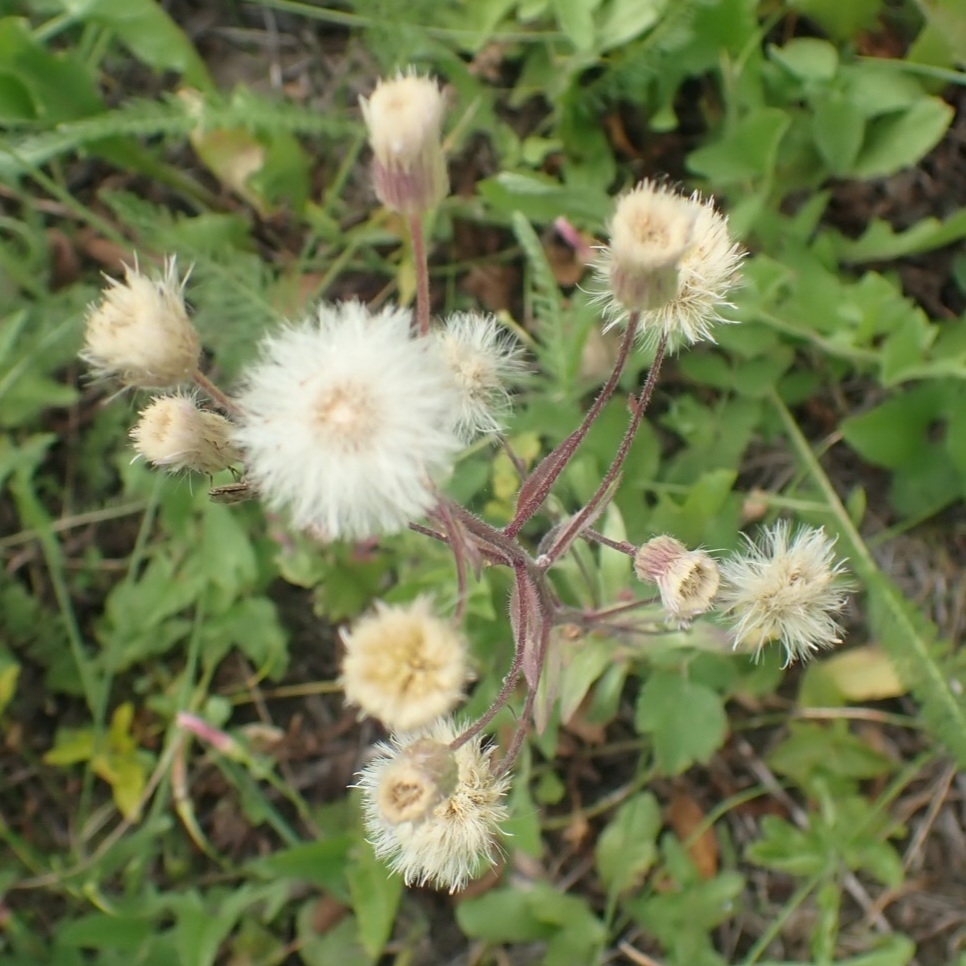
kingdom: Plantae
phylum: Tracheophyta
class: Magnoliopsida
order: Asterales
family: Asteraceae
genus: Erigeron
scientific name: Erigeron acris
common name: Blue fleabane
